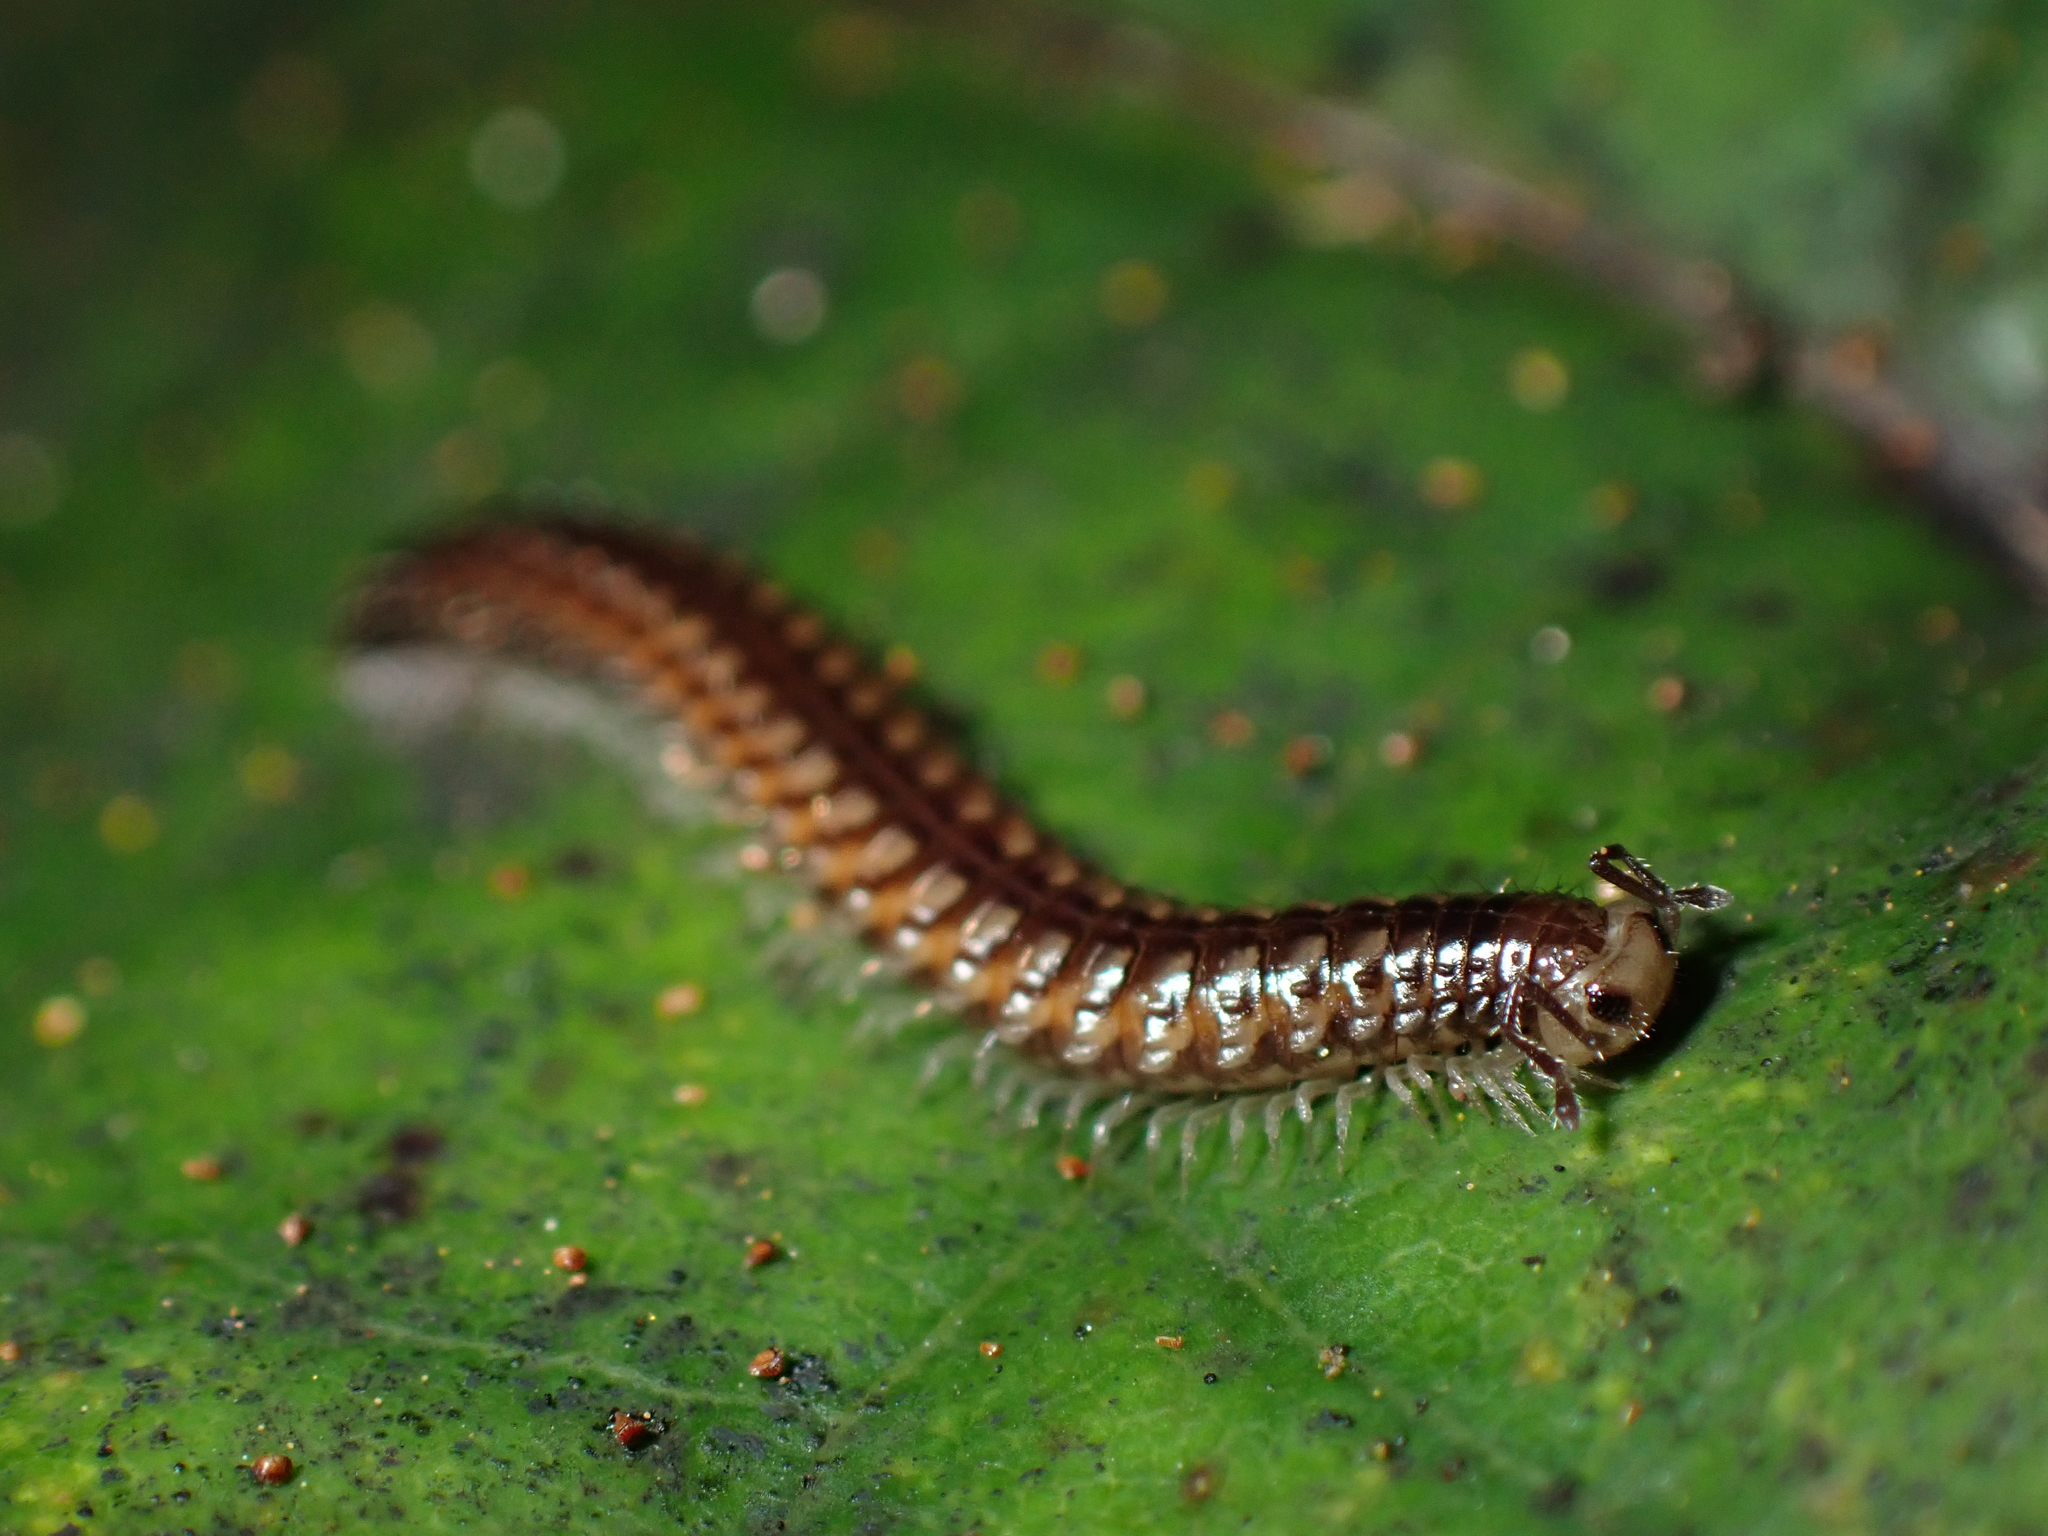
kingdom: Animalia
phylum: Arthropoda
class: Diplopoda
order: Chordeumatida
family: Metopidiotrichidae
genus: Schedotrigona
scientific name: Schedotrigona
